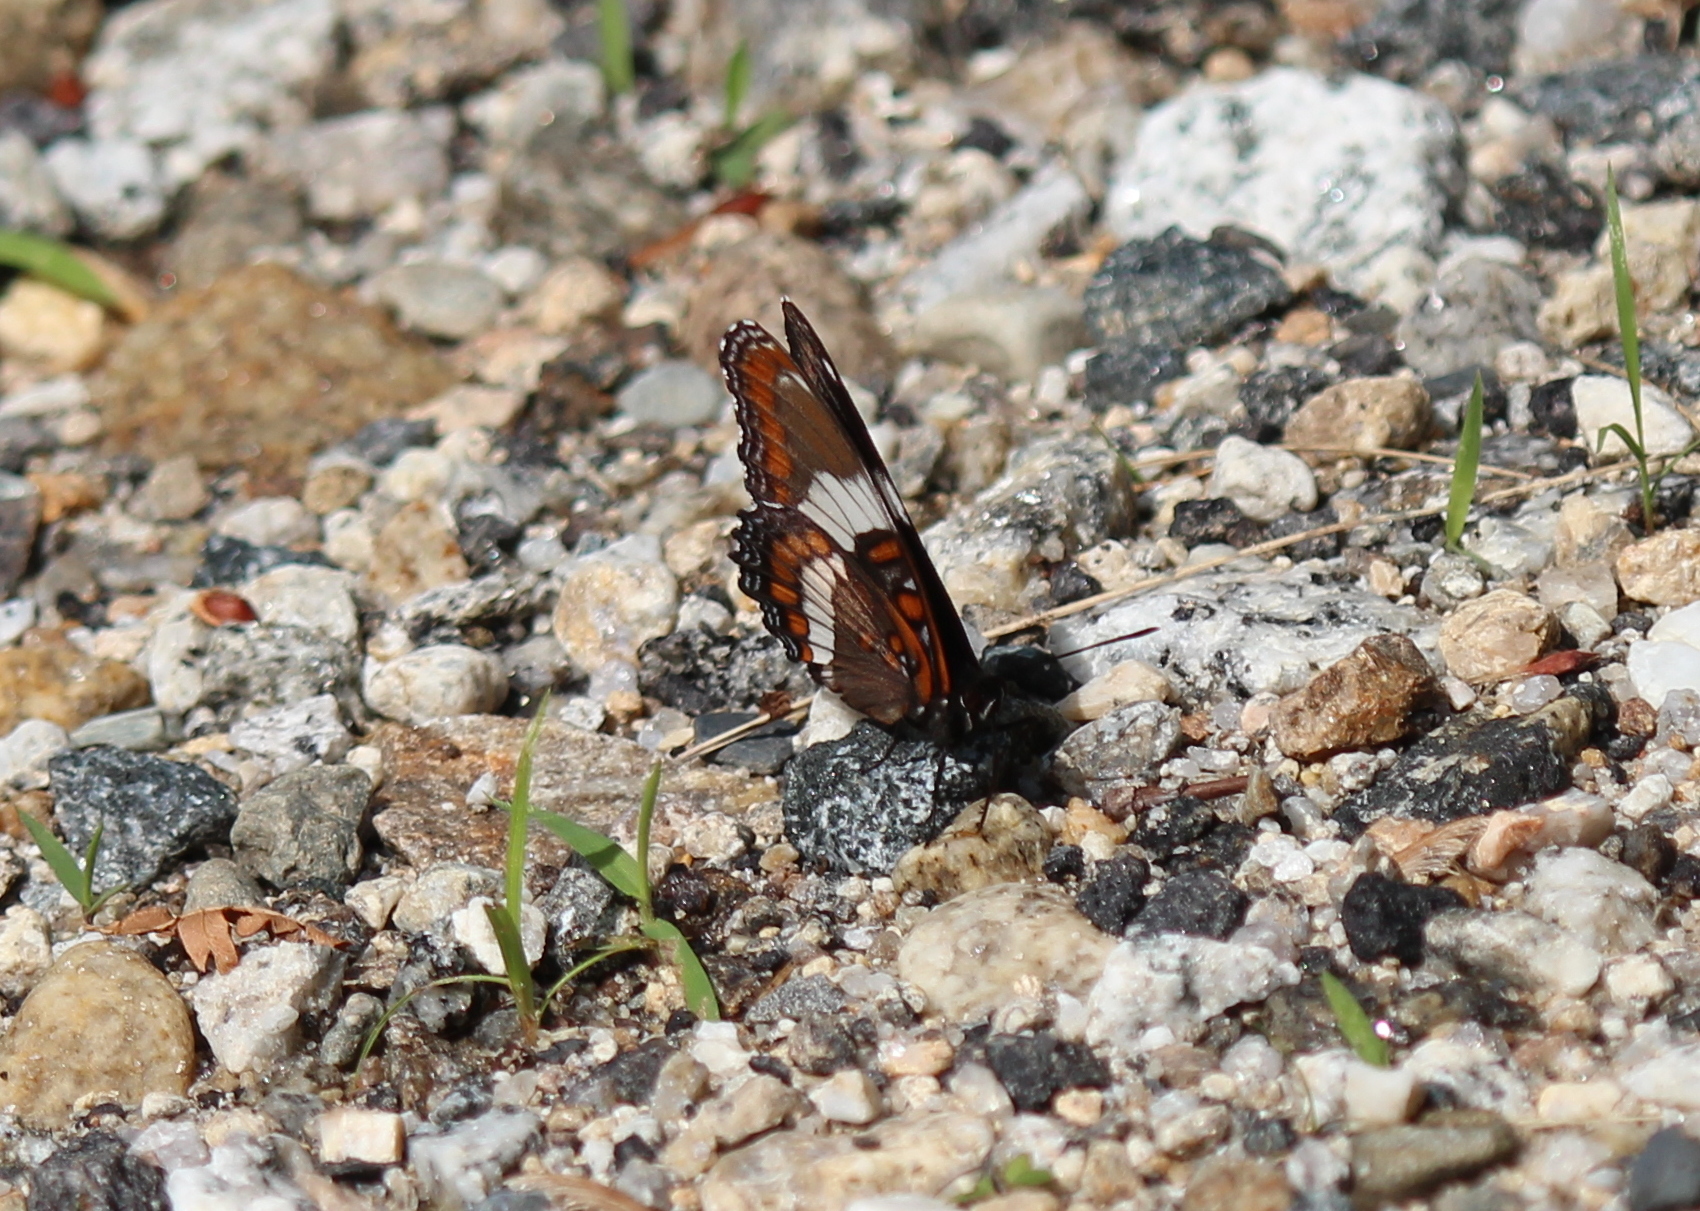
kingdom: Animalia
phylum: Arthropoda
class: Insecta
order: Lepidoptera
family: Nymphalidae
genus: Limenitis
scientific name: Limenitis arthemis
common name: Red-spotted admiral
